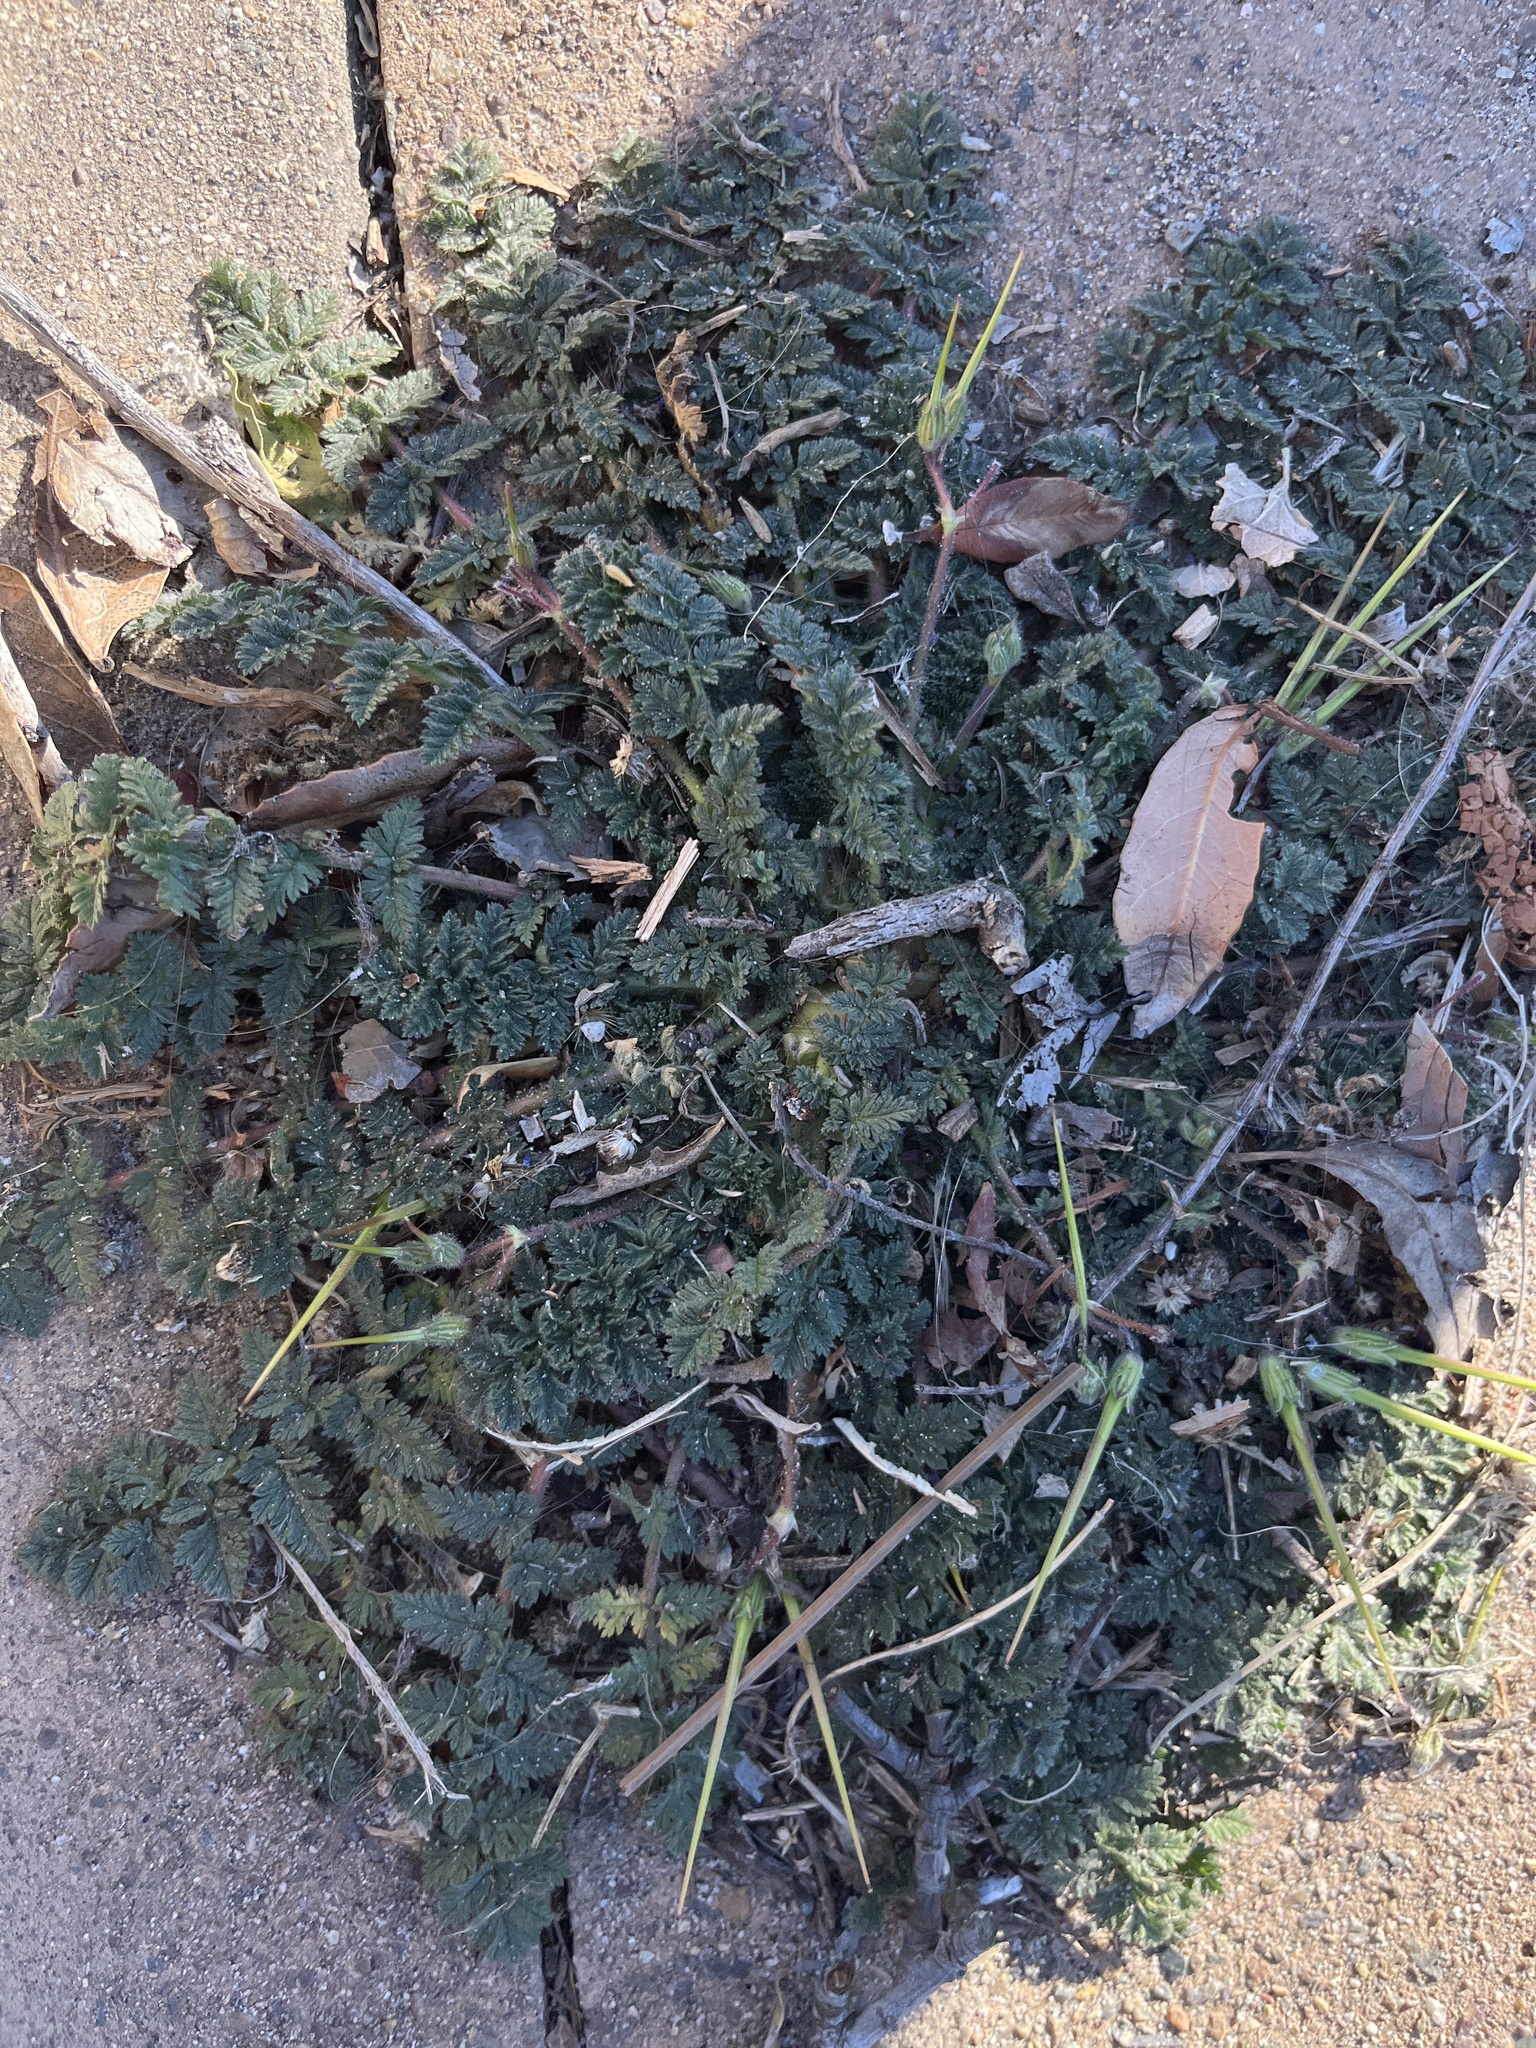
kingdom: Plantae
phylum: Tracheophyta
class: Magnoliopsida
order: Geraniales
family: Geraniaceae
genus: Erodium
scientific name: Erodium cicutarium
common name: Common stork's-bill
